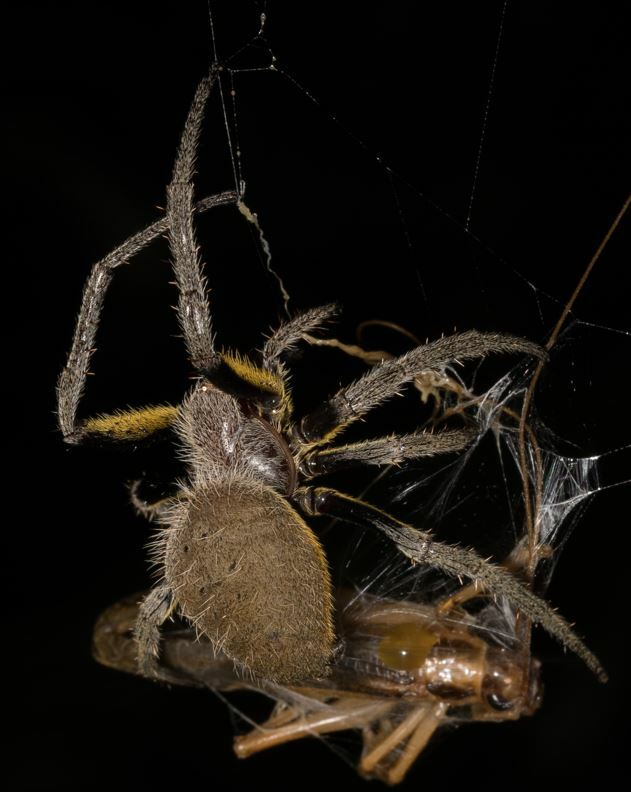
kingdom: Animalia
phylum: Arthropoda
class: Arachnida
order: Araneae
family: Araneidae
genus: Eriophora
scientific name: Eriophora fuliginea
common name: Orb weavers
